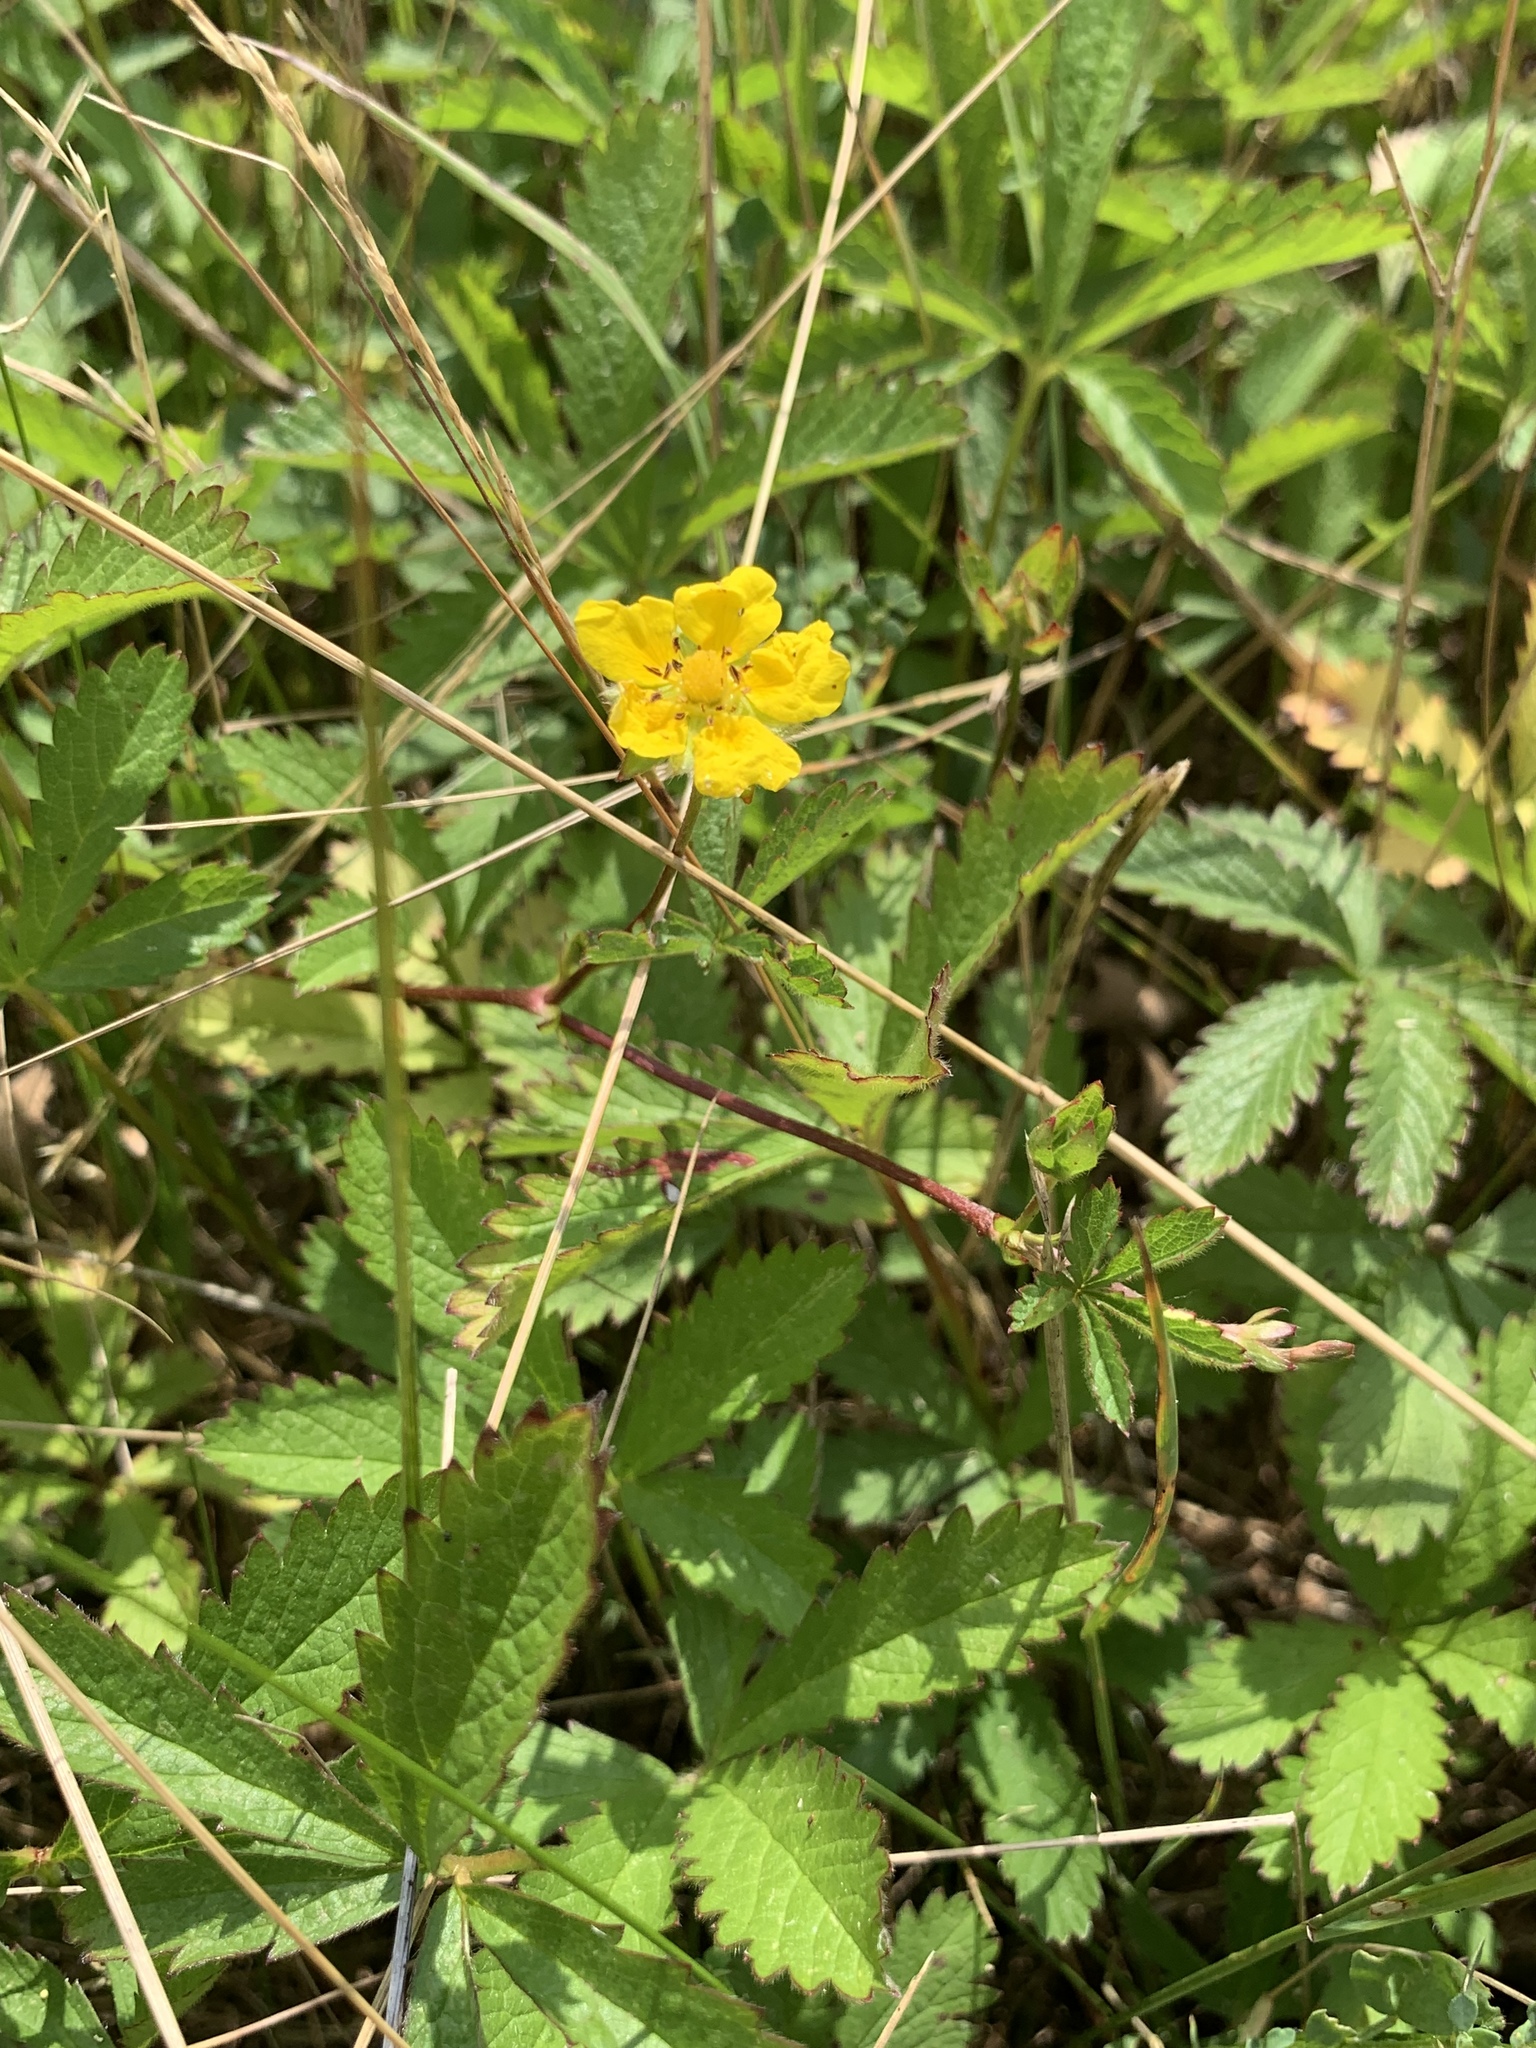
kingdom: Plantae
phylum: Tracheophyta
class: Magnoliopsida
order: Rosales
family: Rosaceae
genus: Potentilla
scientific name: Potentilla reptans
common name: Creeping cinquefoil
